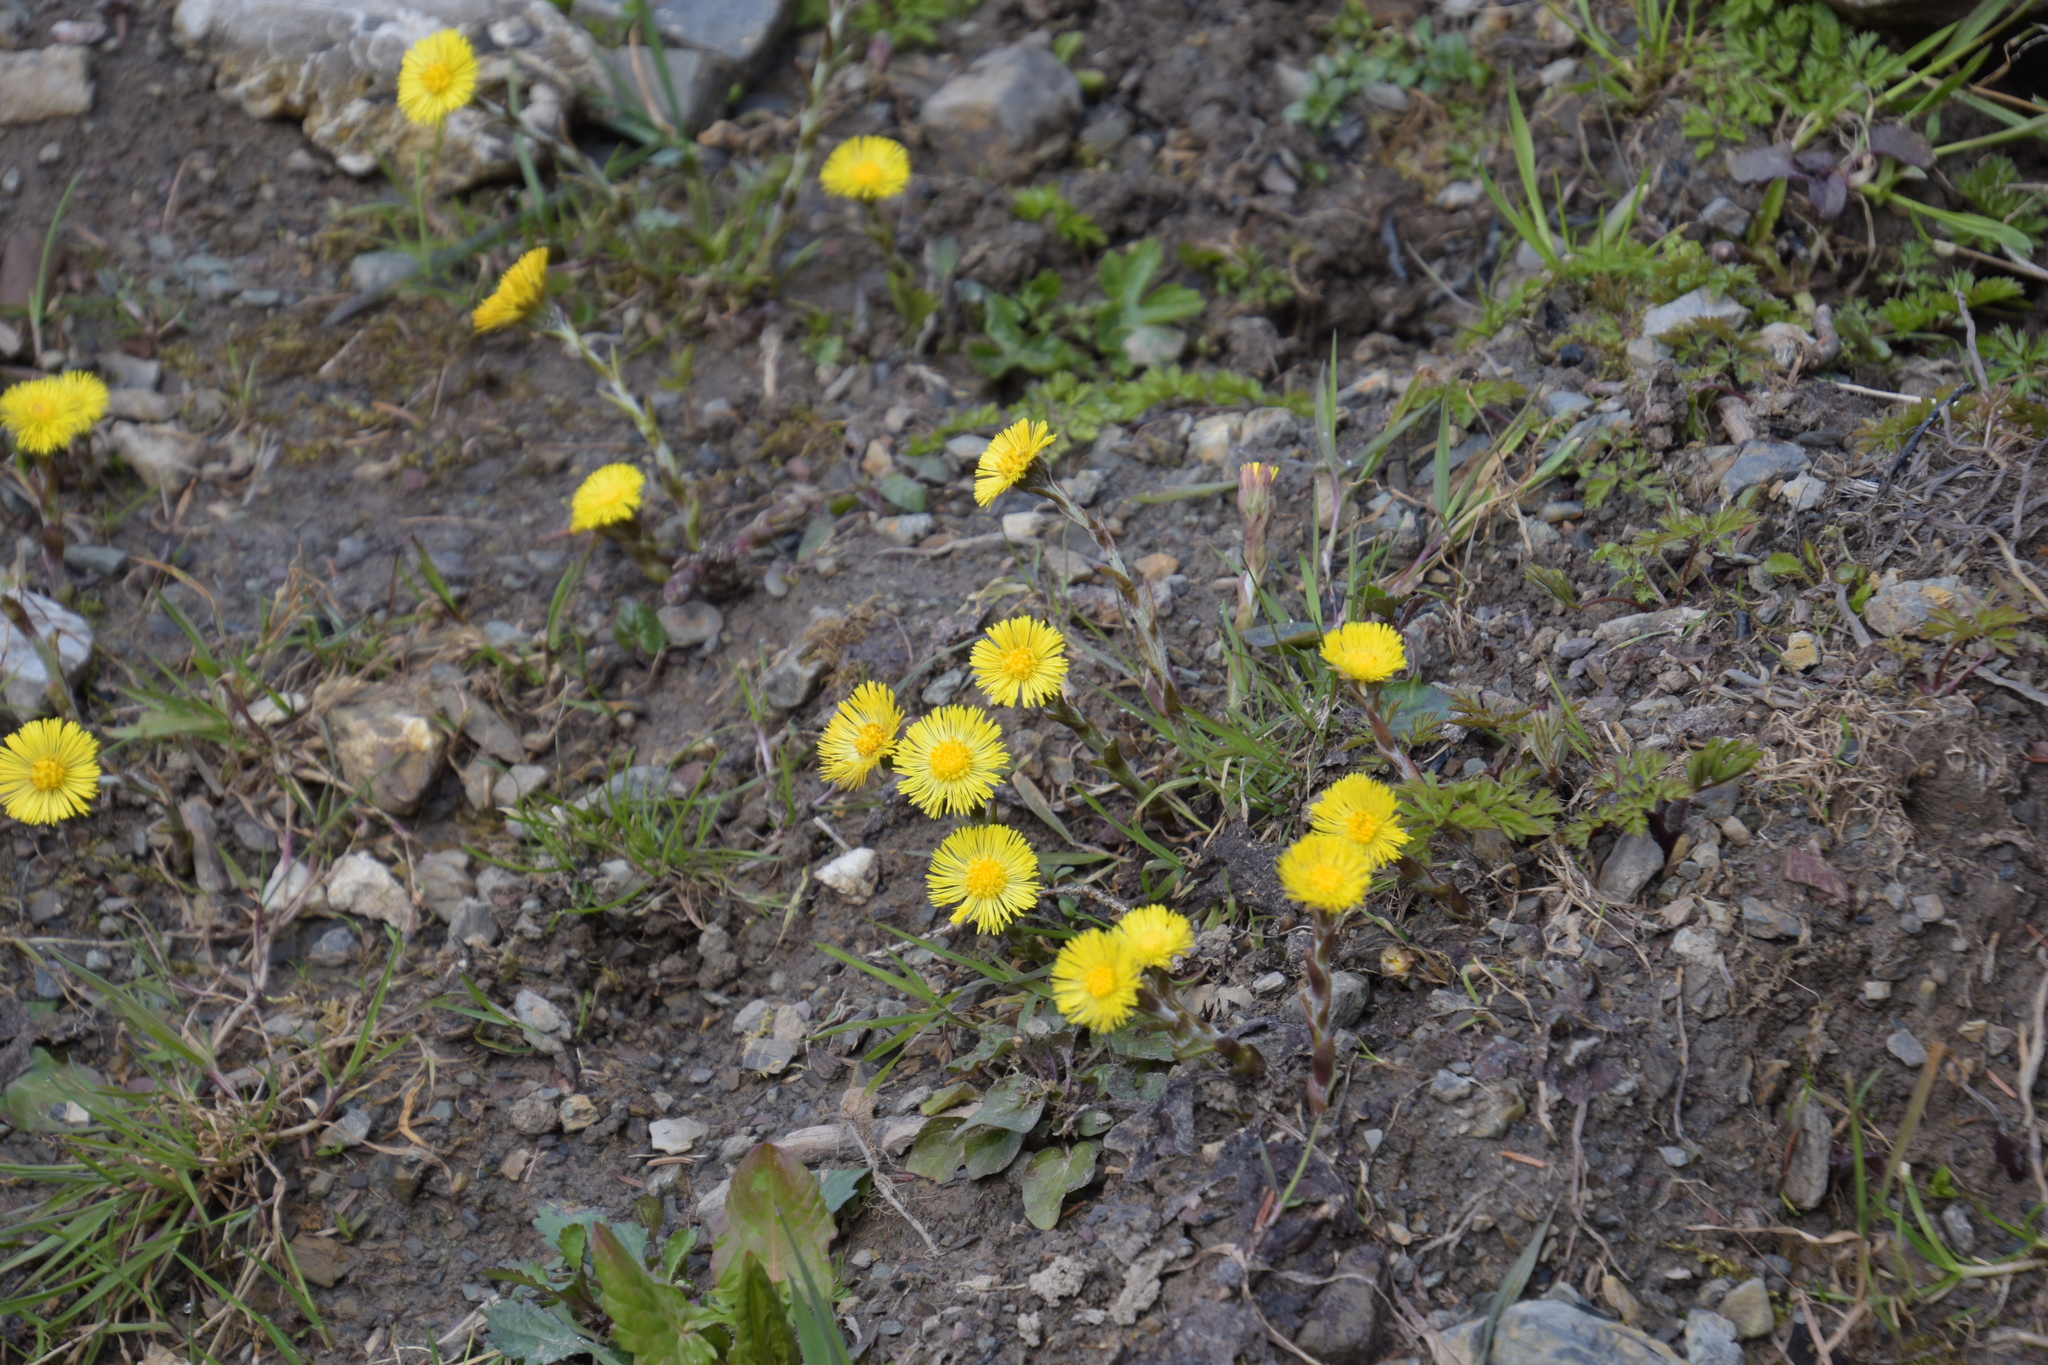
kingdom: Plantae
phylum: Tracheophyta
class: Magnoliopsida
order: Asterales
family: Asteraceae
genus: Tussilago
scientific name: Tussilago farfara
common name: Coltsfoot
